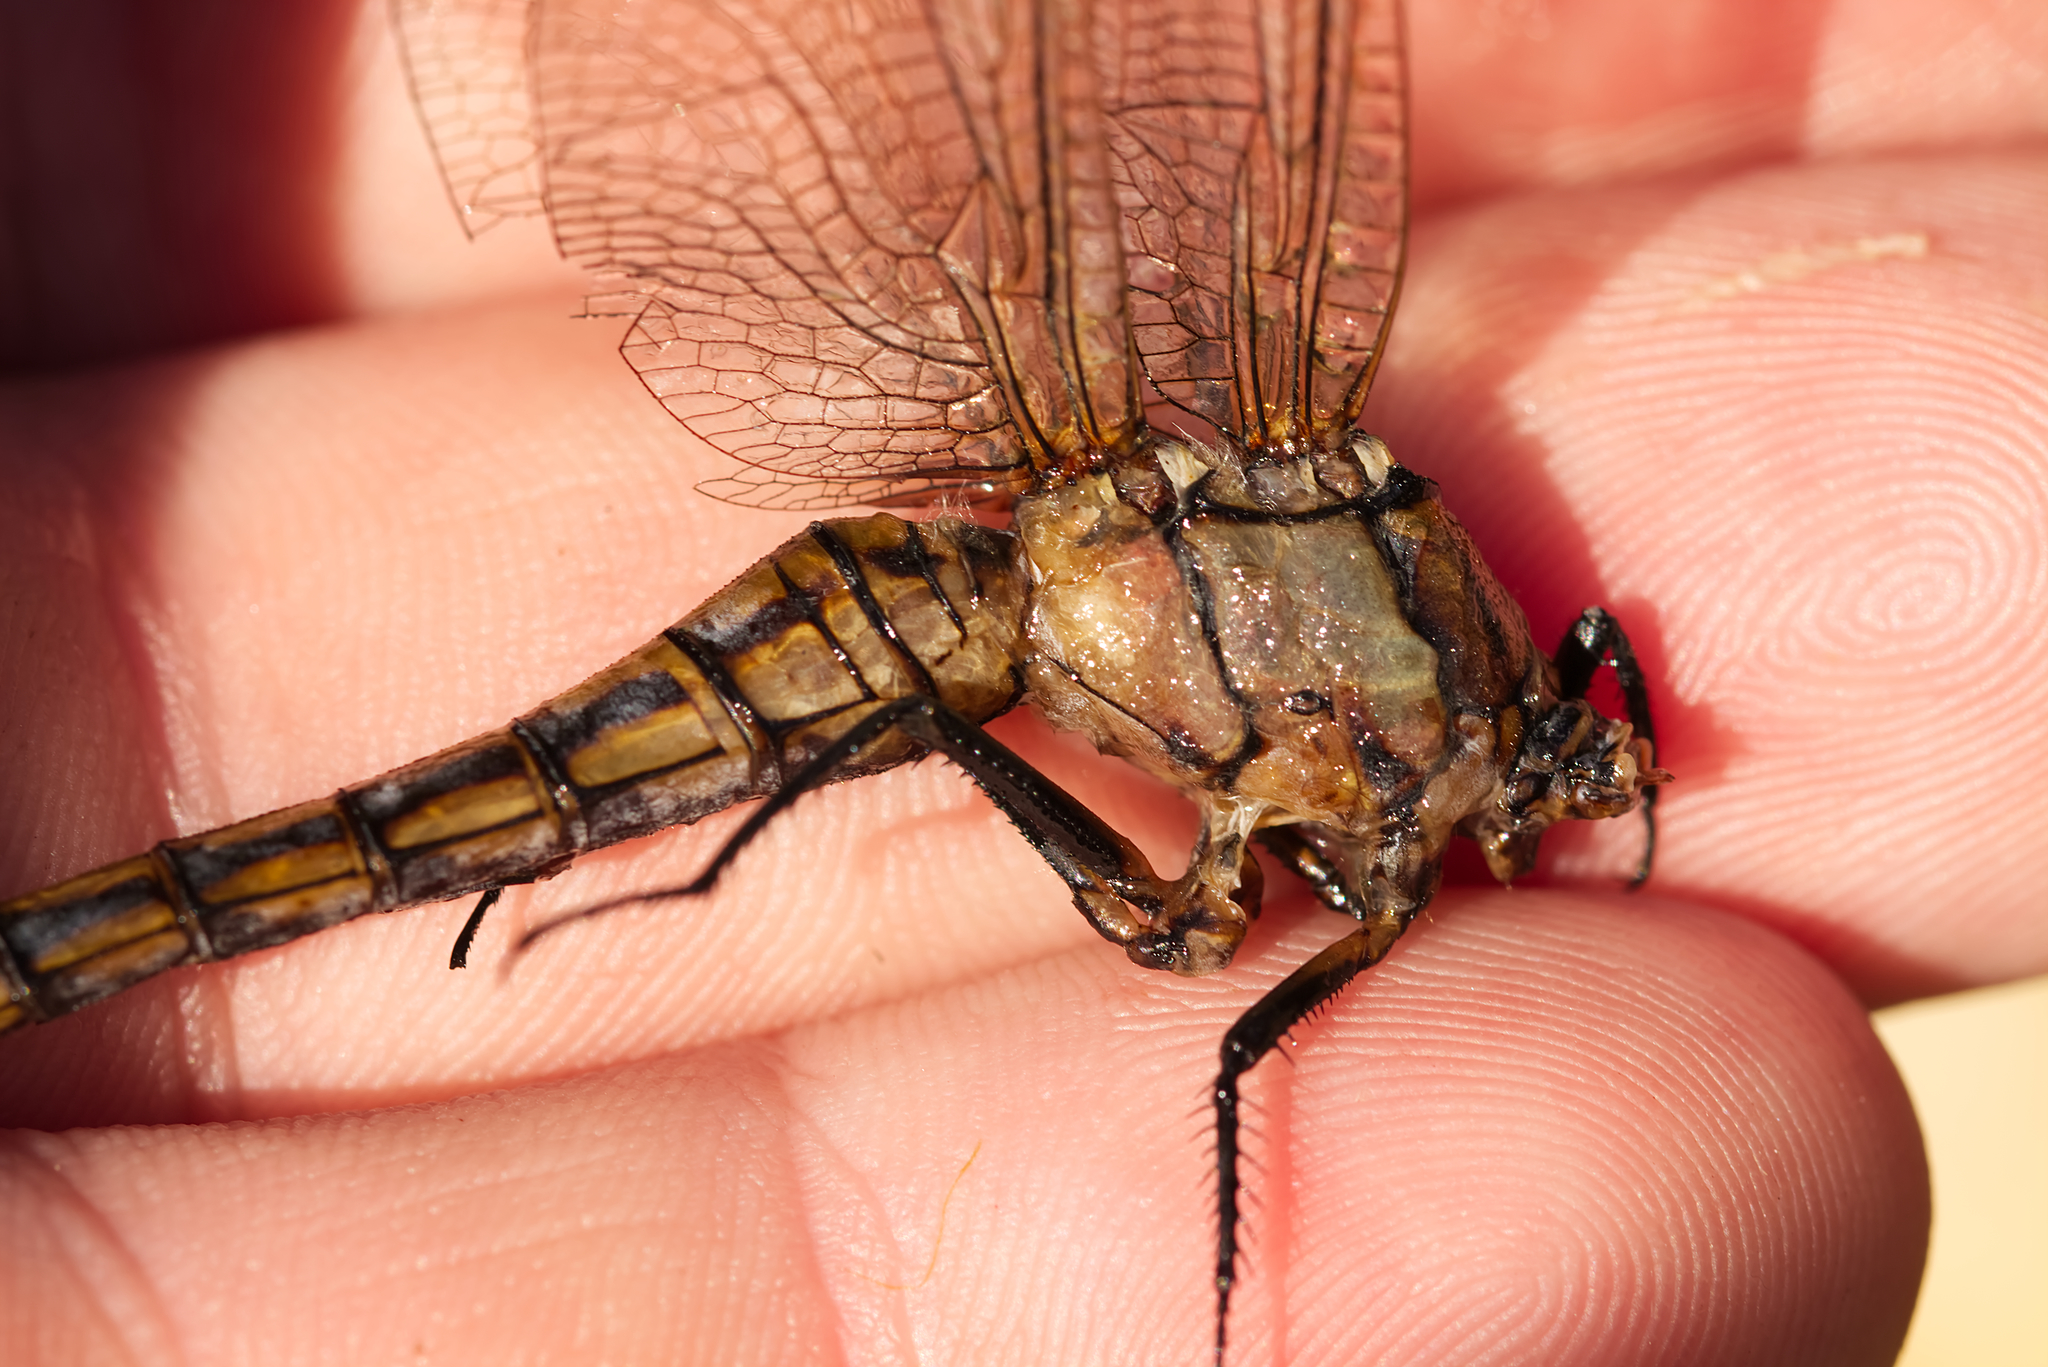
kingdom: Animalia
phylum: Arthropoda
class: Insecta
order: Odonata
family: Libellulidae
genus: Orthetrum
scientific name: Orthetrum cancellatum
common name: Black-tailed skimmer
